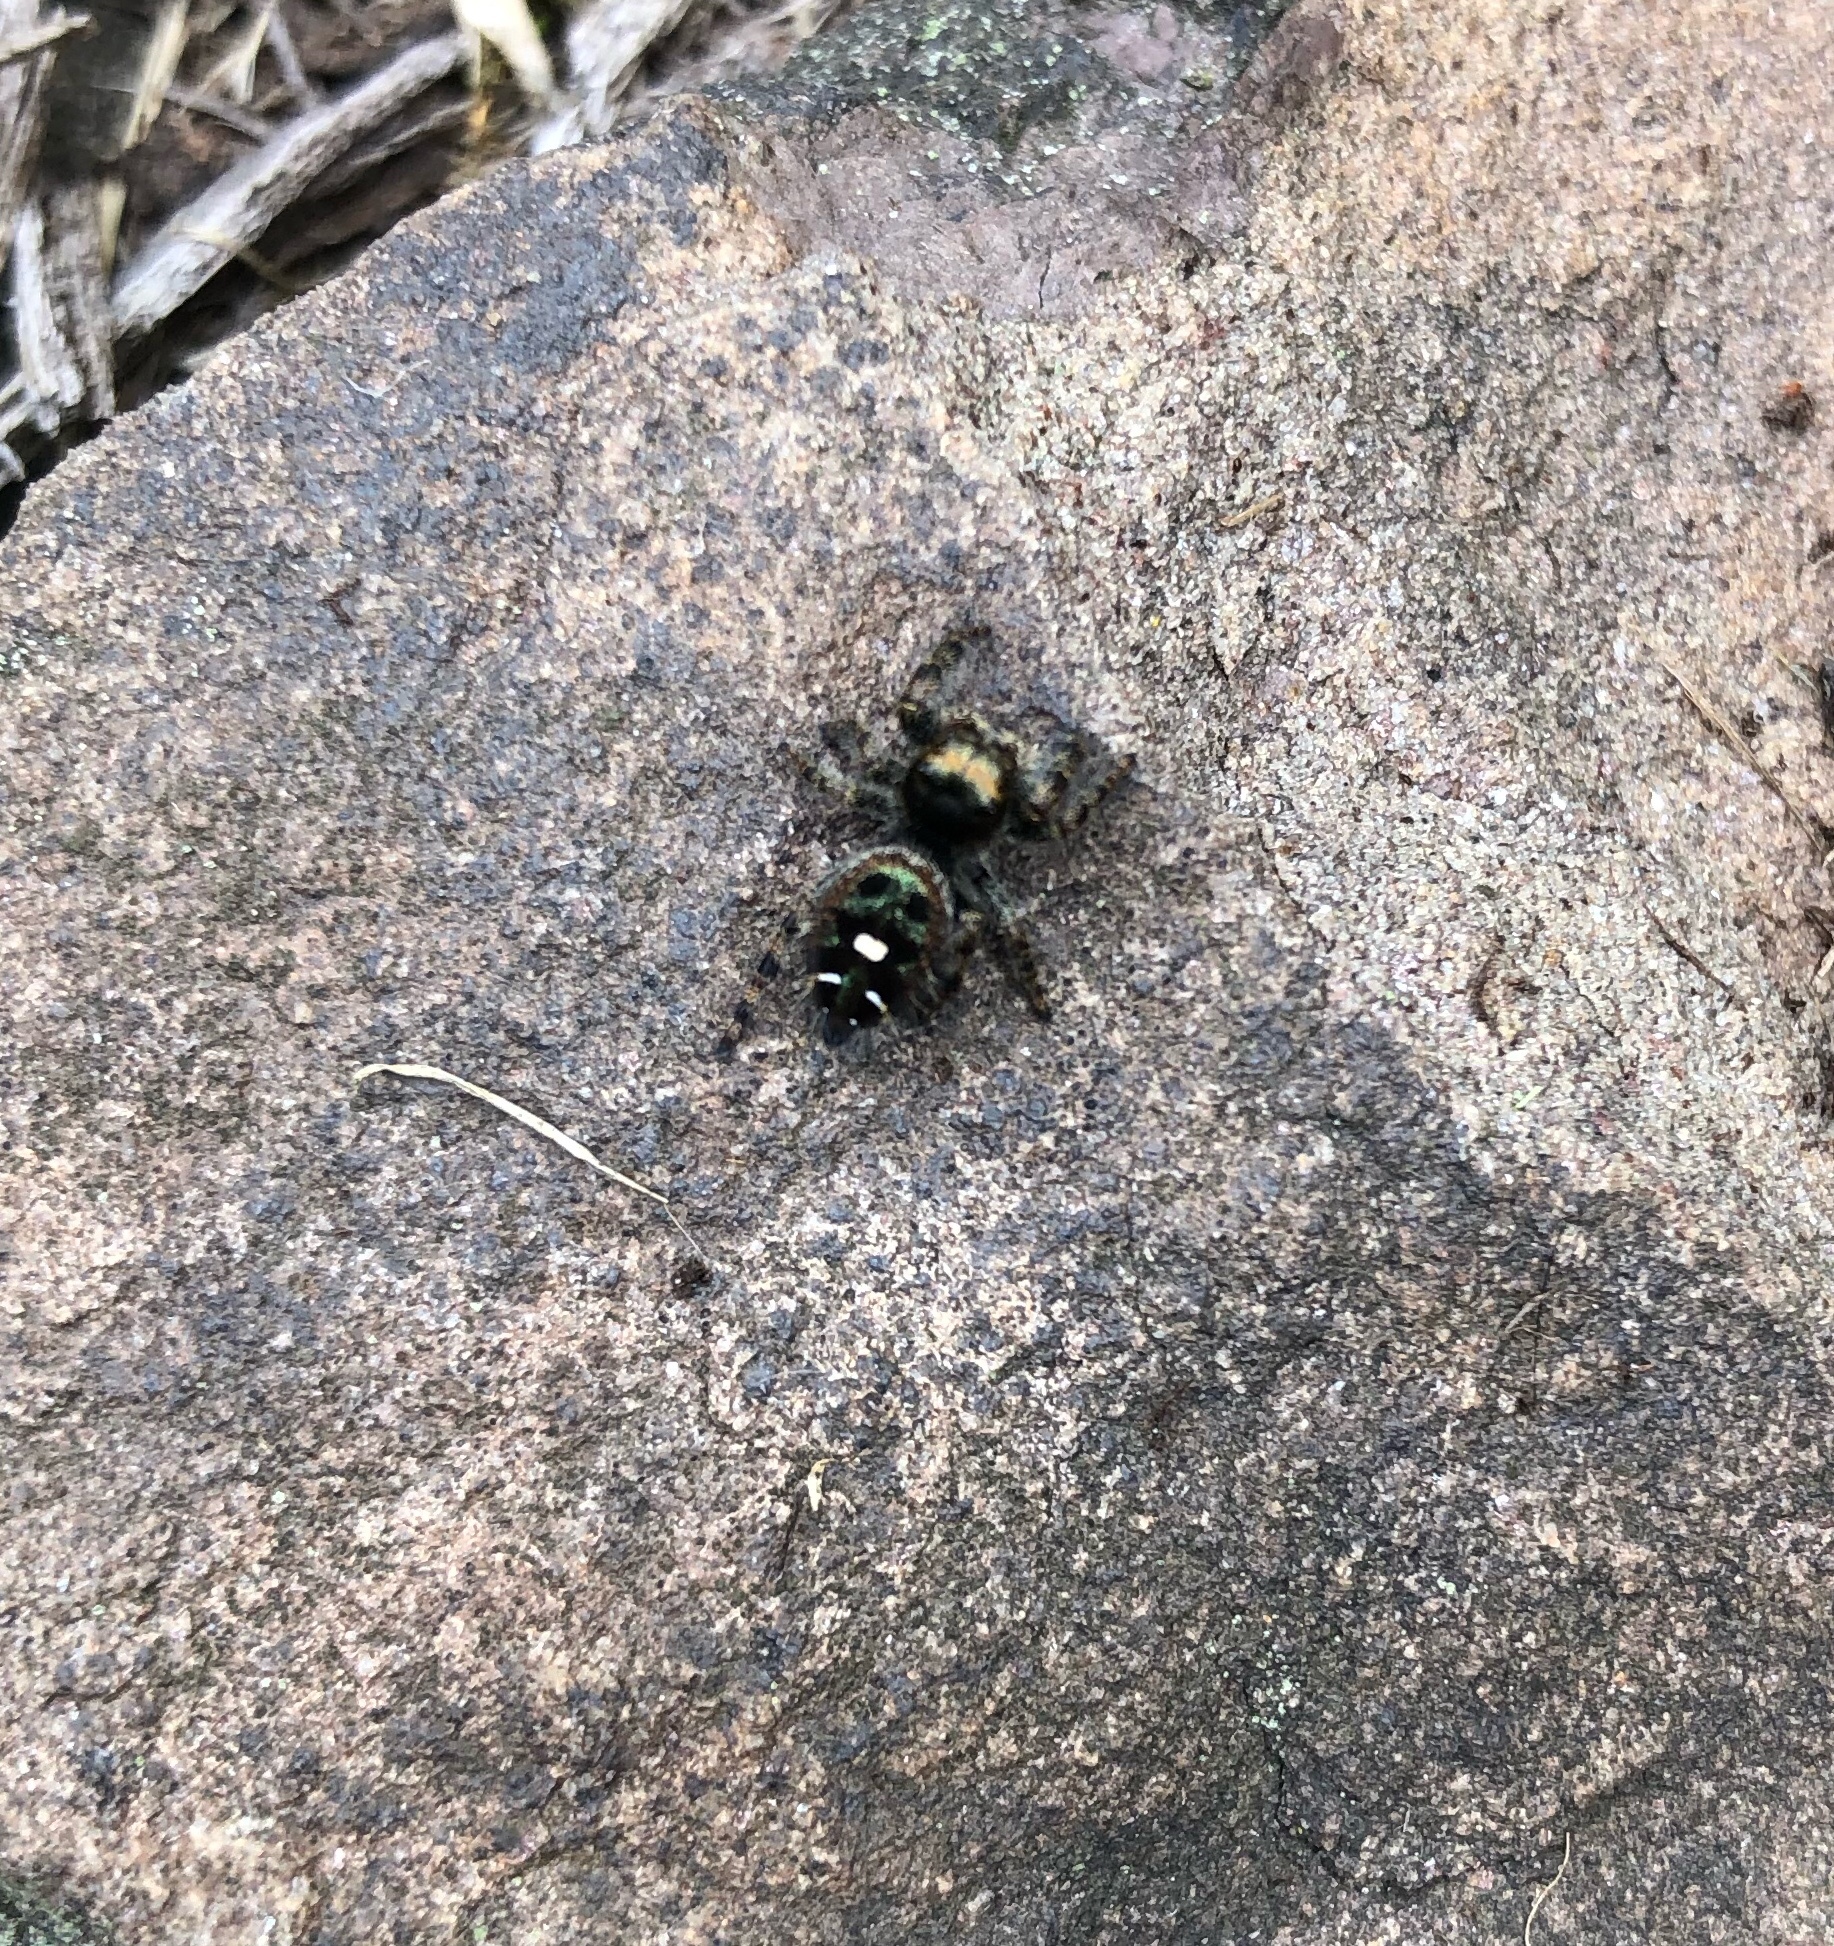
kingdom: Animalia
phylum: Arthropoda
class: Arachnida
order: Araneae
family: Salticidae
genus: Phidippus
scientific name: Phidippus audax
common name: Bold jumper
